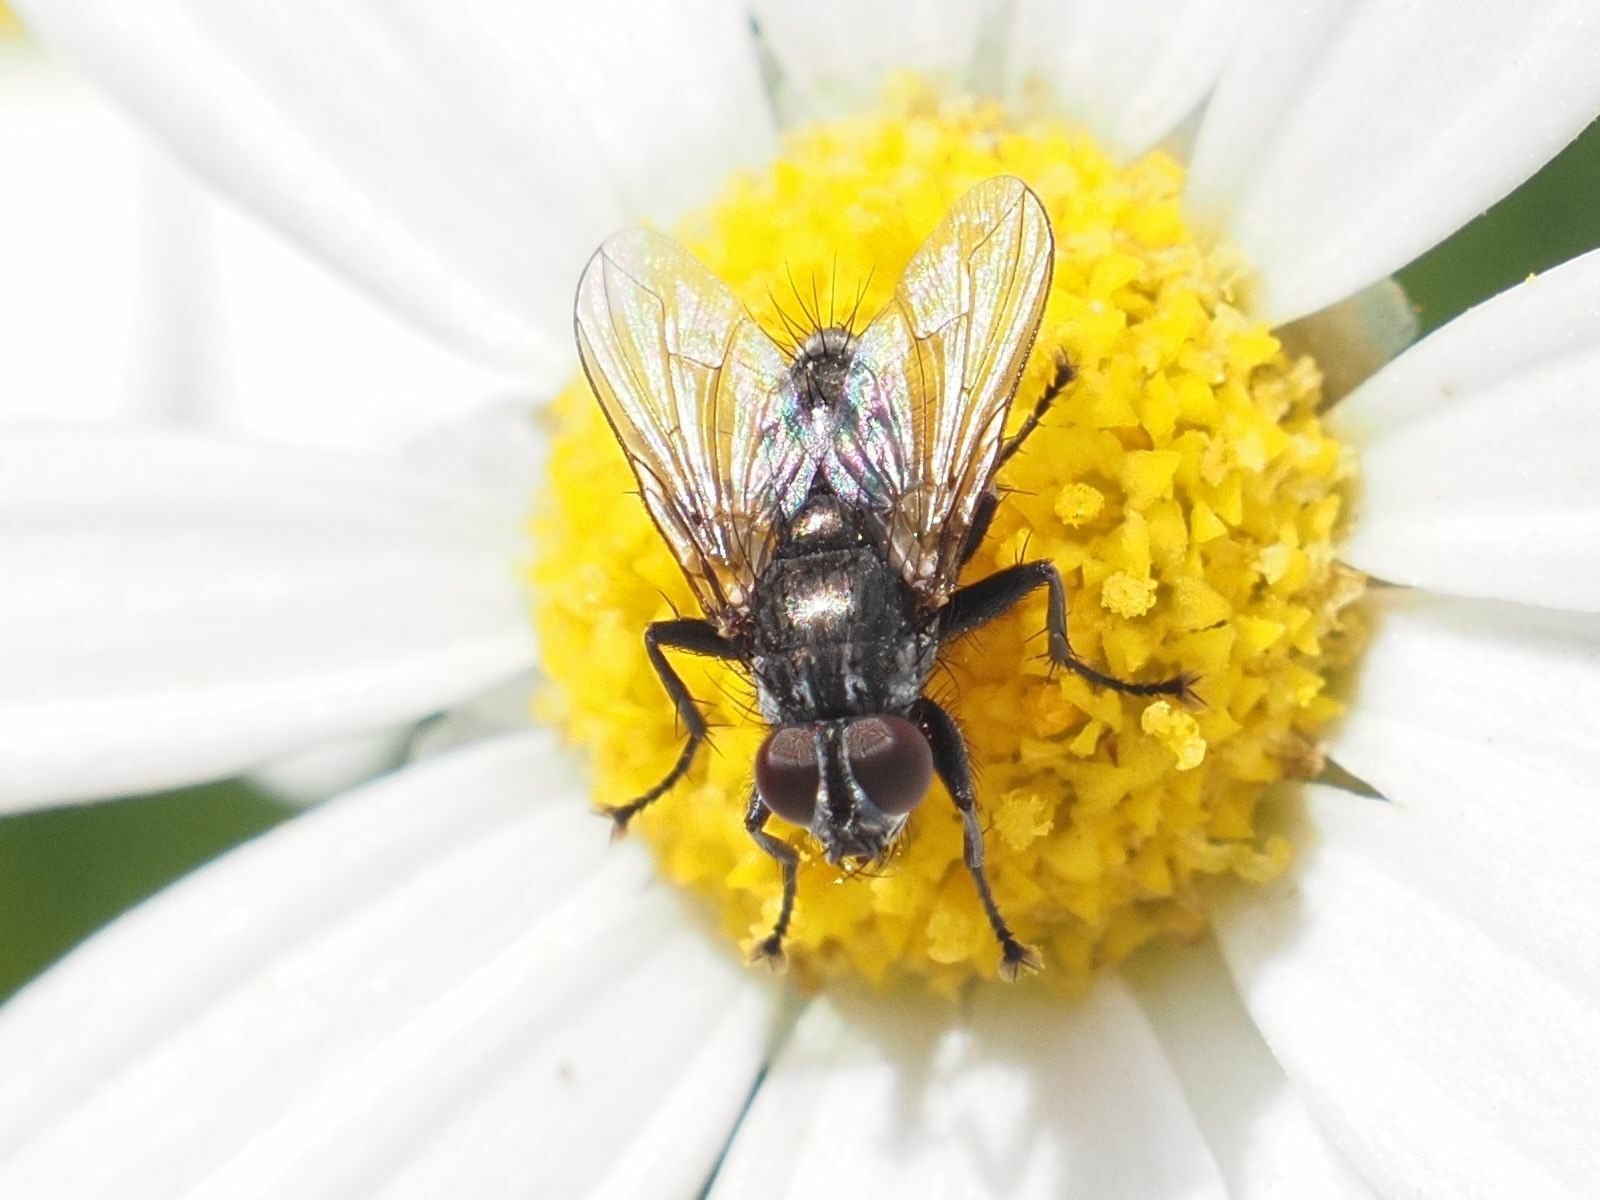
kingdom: Animalia
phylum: Arthropoda
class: Insecta
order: Diptera
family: Calliphoridae
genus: Phyto
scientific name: Phyto hertingi
